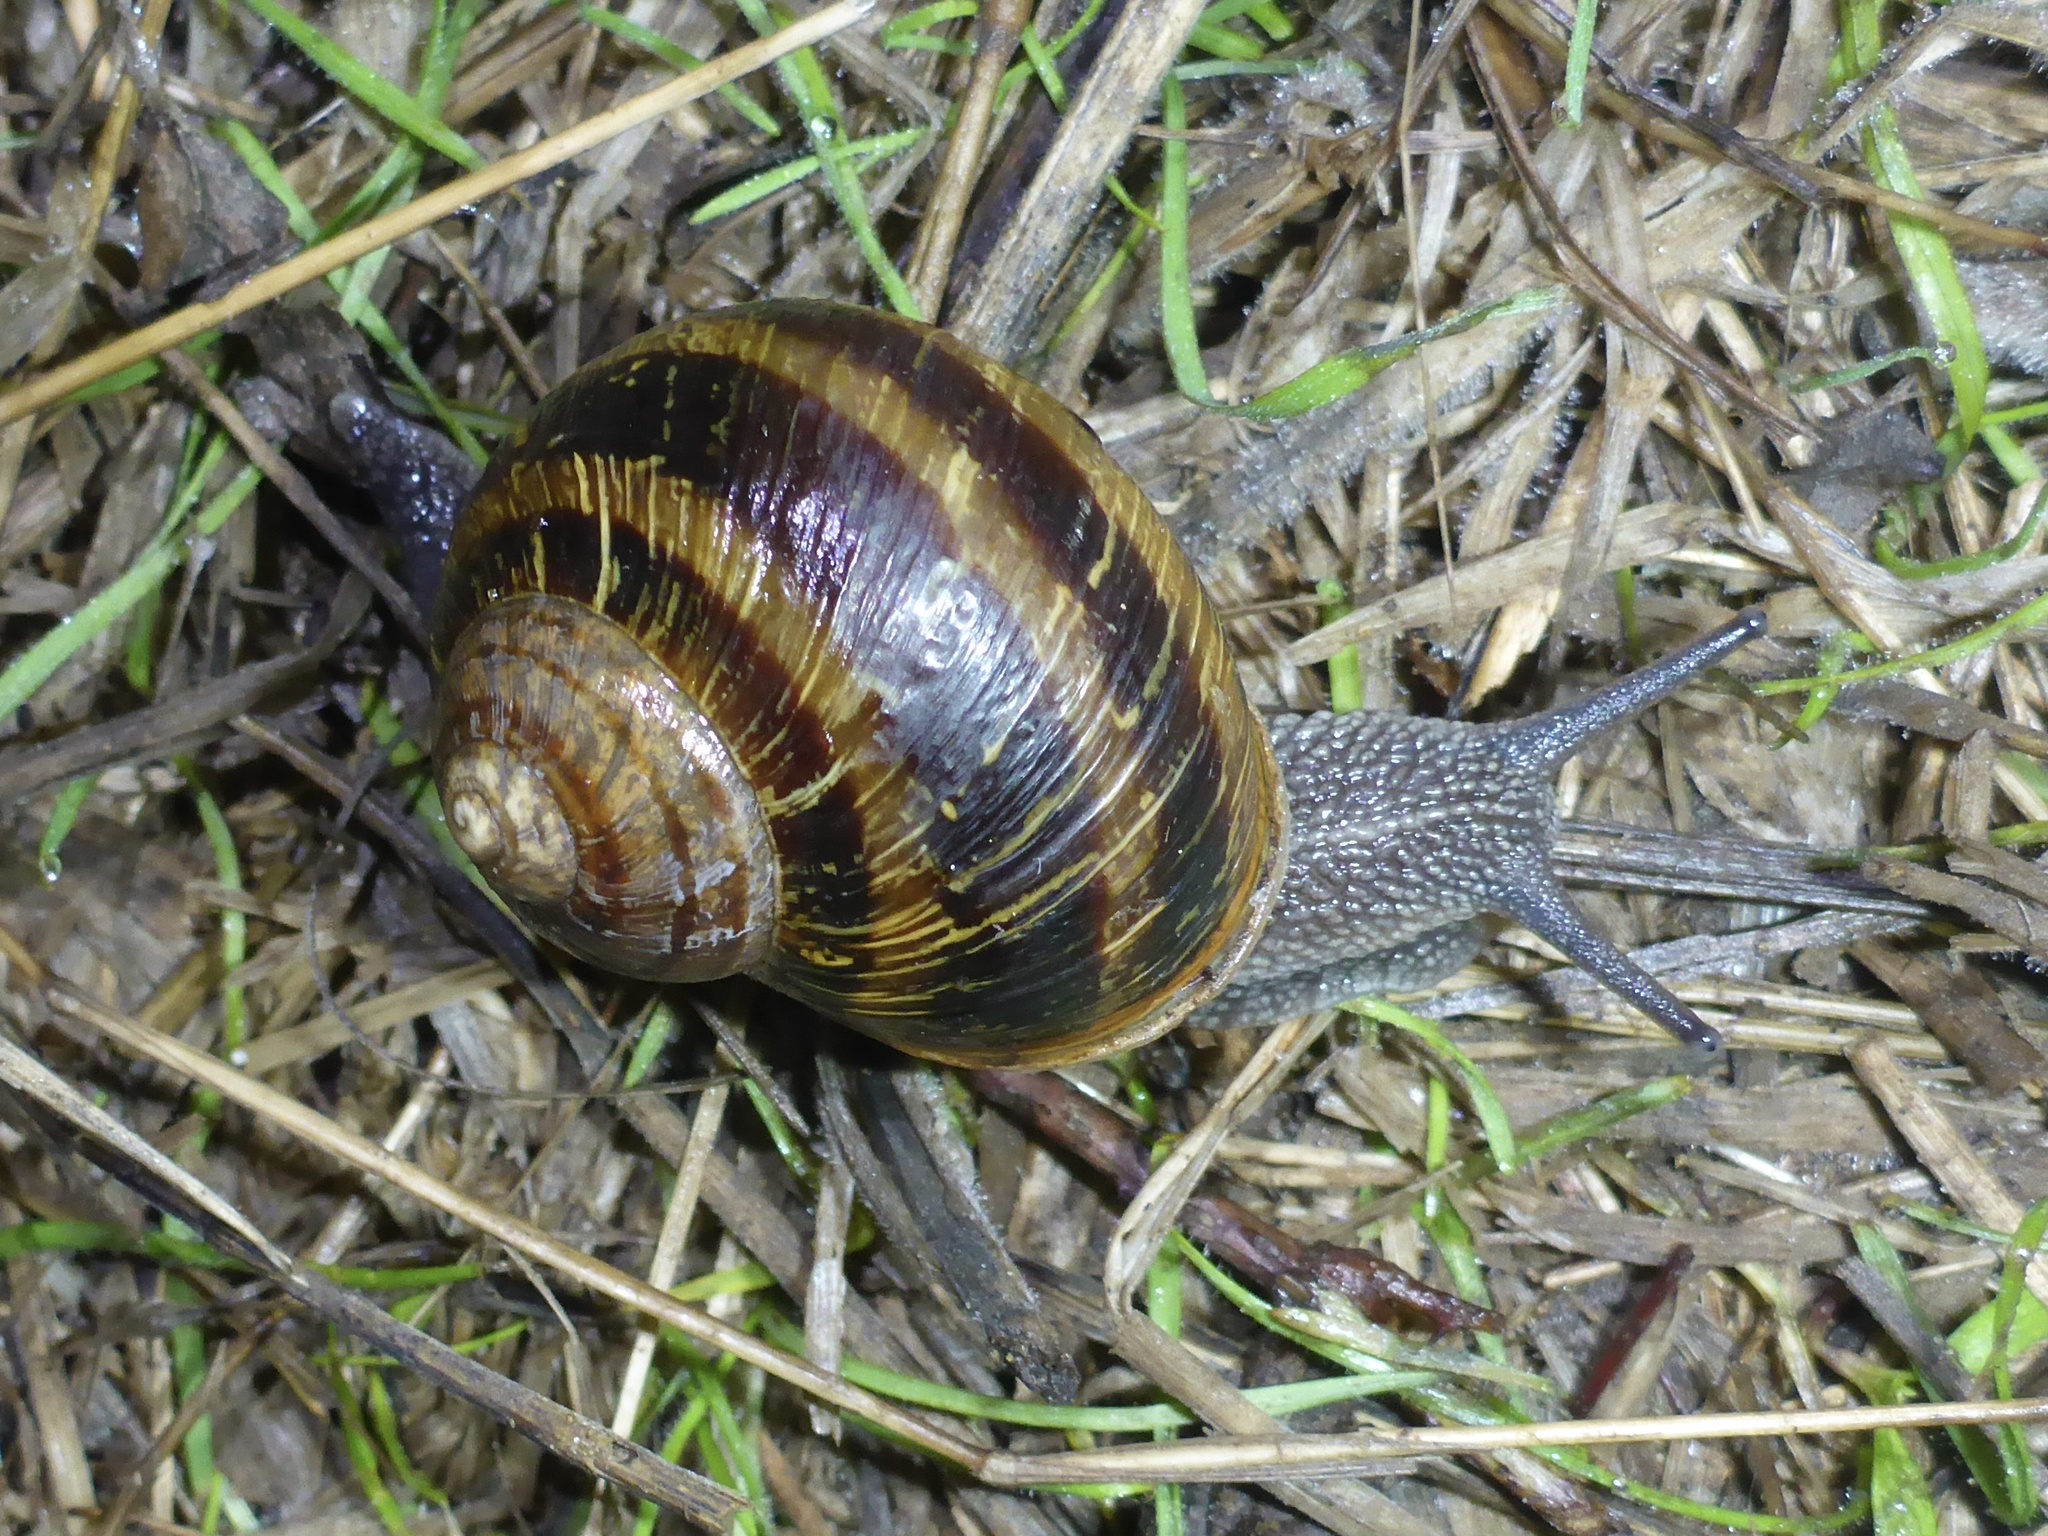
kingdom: Animalia
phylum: Mollusca
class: Gastropoda
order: Stylommatophora
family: Helicidae
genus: Cornu
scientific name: Cornu aspersum
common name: Brown garden snail
